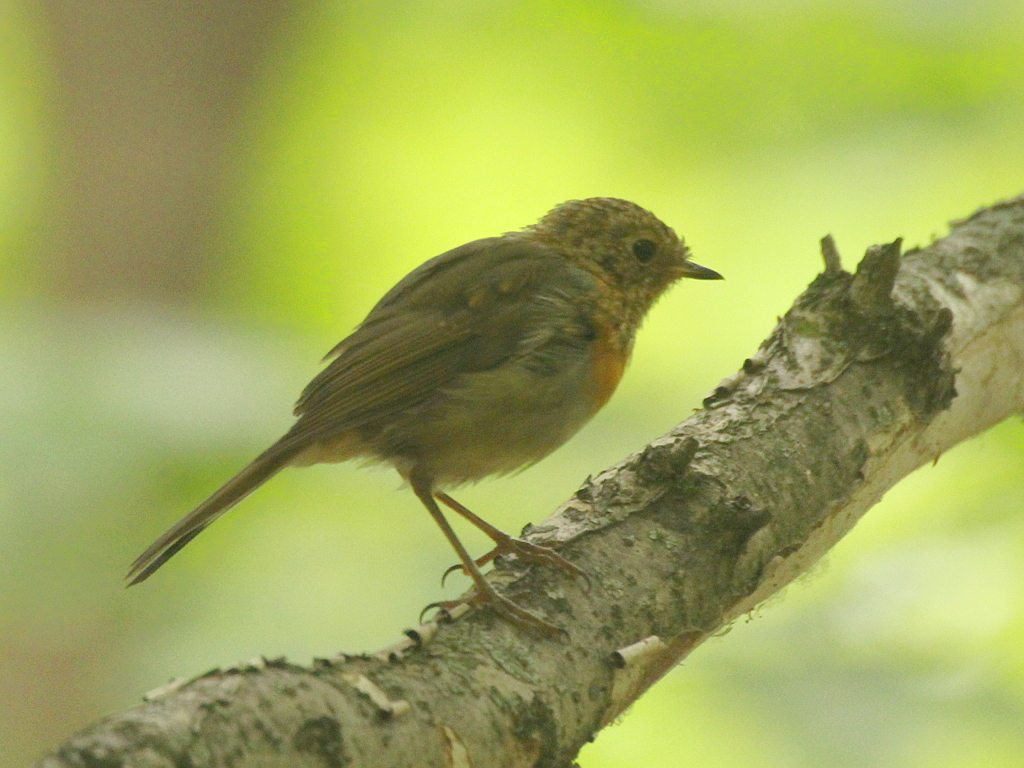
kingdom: Animalia
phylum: Chordata
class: Aves
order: Passeriformes
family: Muscicapidae
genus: Erithacus
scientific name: Erithacus rubecula
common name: European robin
